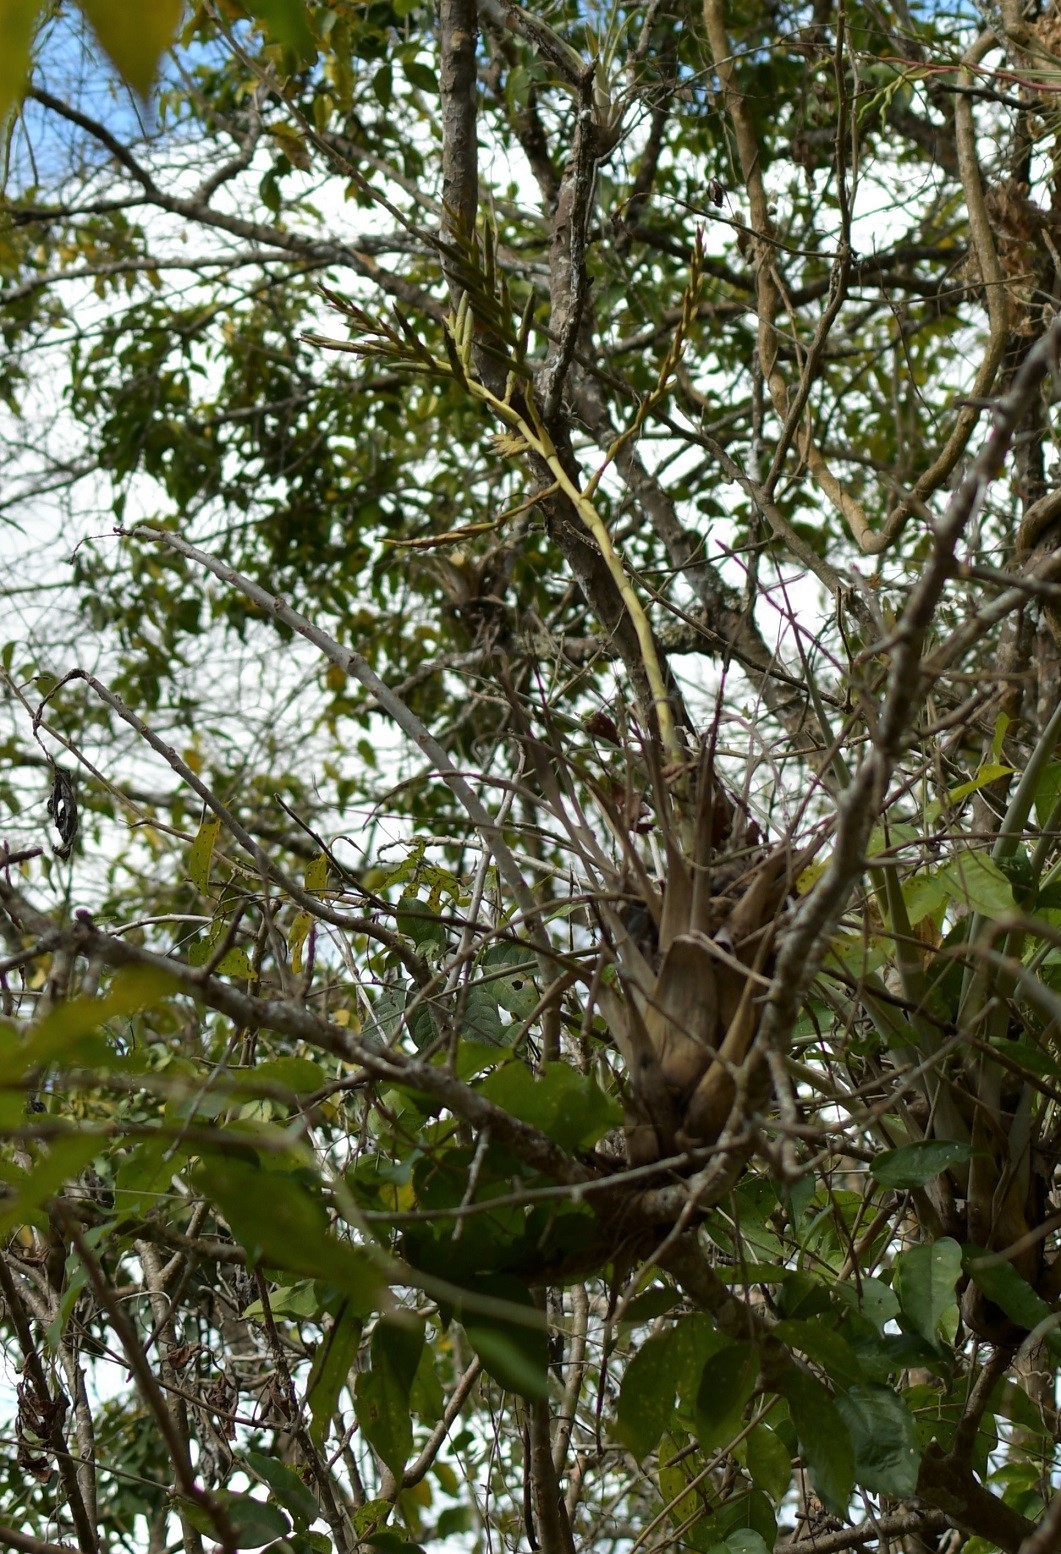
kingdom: Plantae
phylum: Tracheophyta
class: Liliopsida
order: Poales
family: Bromeliaceae
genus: Tillandsia
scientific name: Tillandsia elusiva
